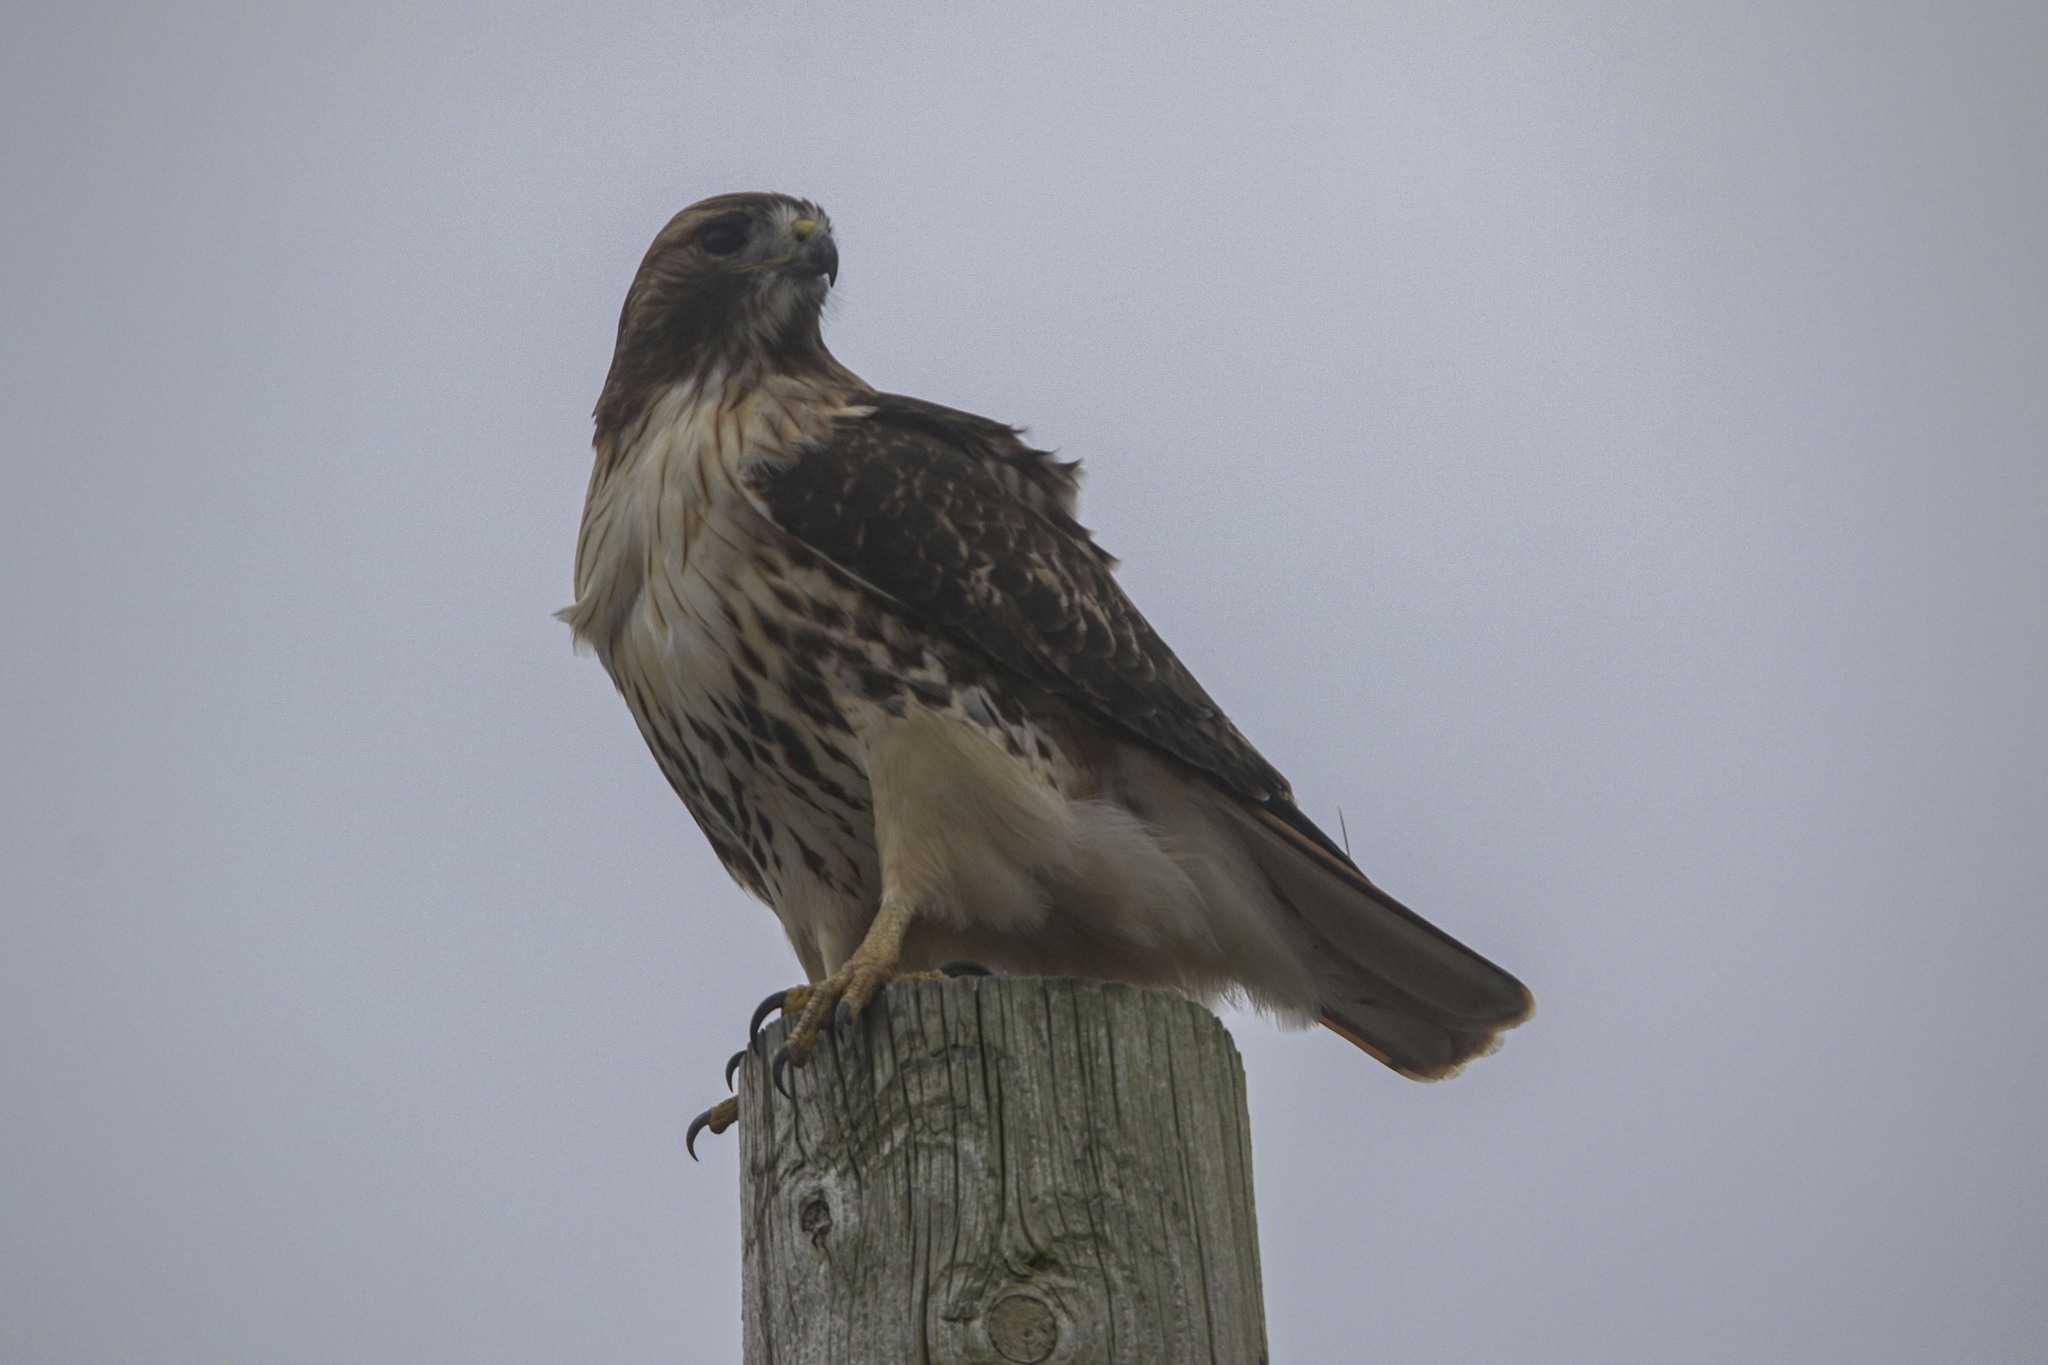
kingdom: Animalia
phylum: Chordata
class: Aves
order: Accipitriformes
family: Accipitridae
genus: Buteo
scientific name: Buteo jamaicensis
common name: Red-tailed hawk
